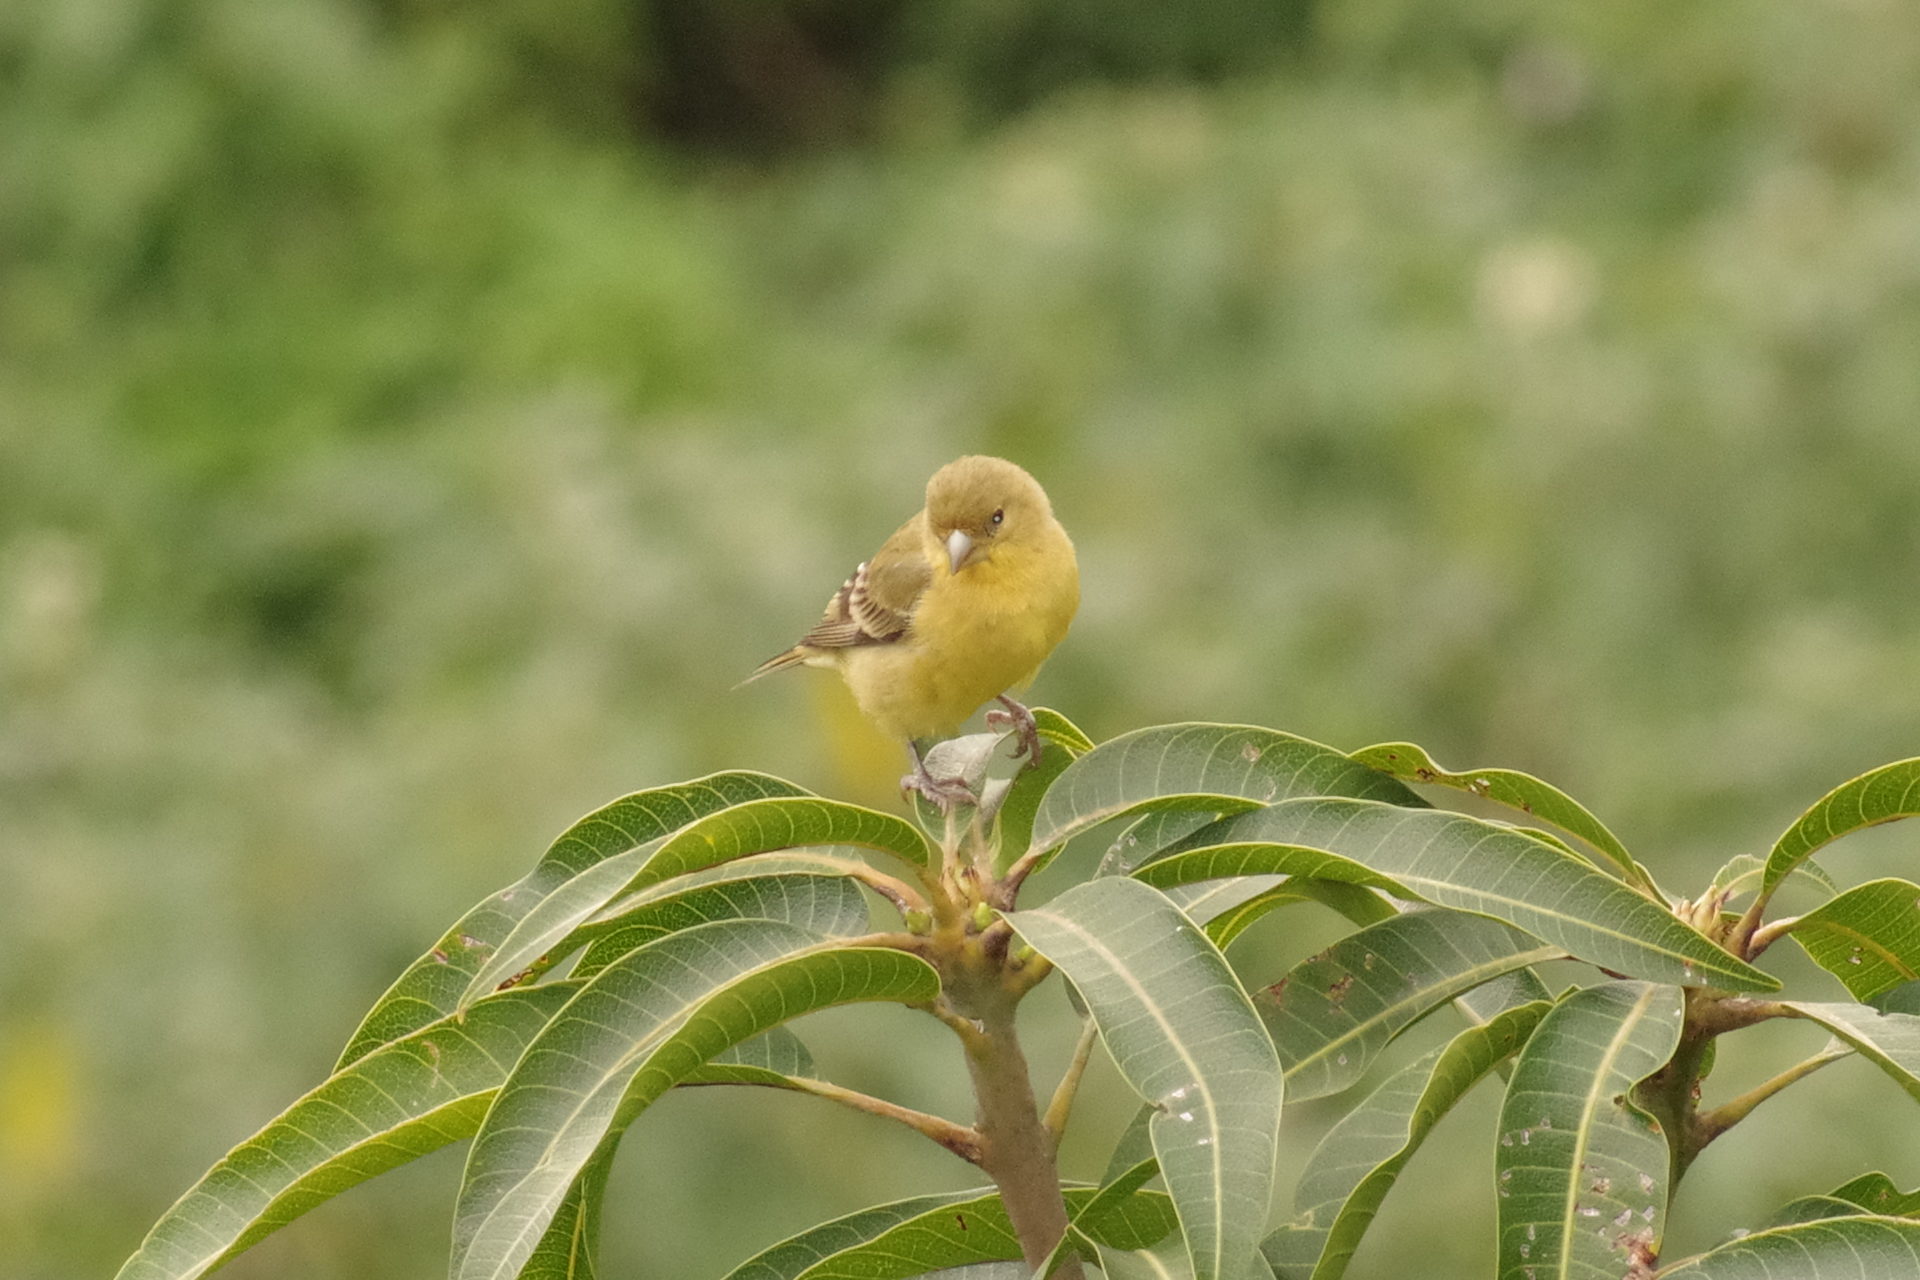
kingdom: Animalia
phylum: Chordata
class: Aves
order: Passeriformes
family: Fringillidae
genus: Spinus
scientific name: Spinus psaltria
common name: Lesser goldfinch
